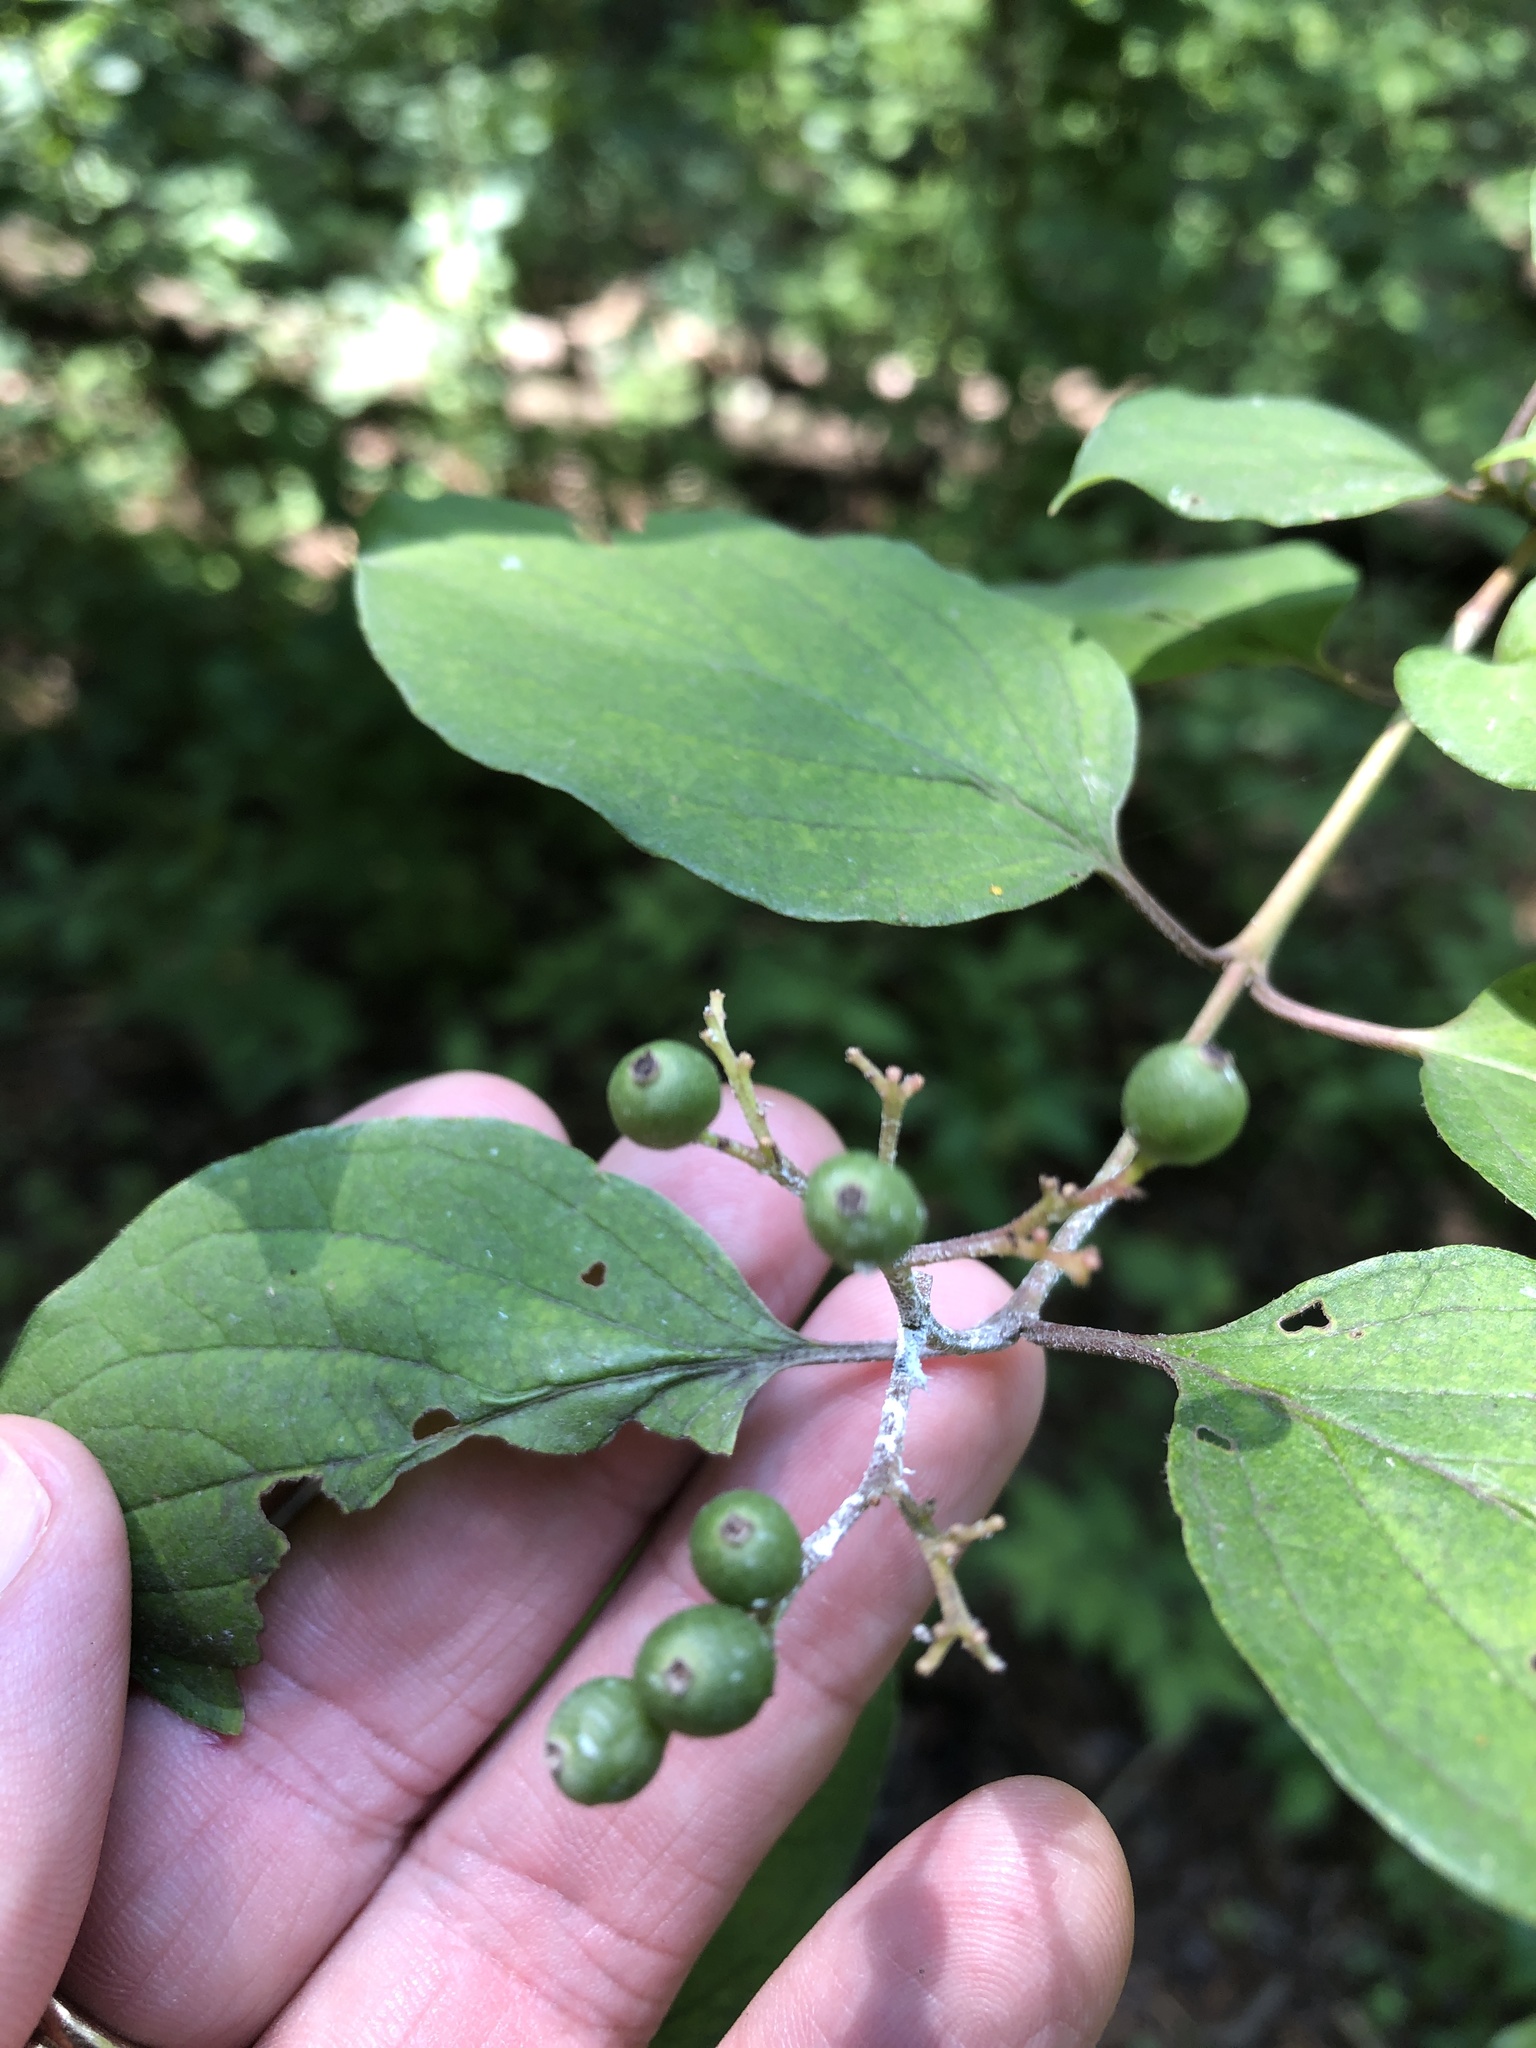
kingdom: Plantae
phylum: Tracheophyta
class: Magnoliopsida
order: Cornales
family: Cornaceae
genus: Cornus
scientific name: Cornus drummondii
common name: Rough-leaf dogwood
